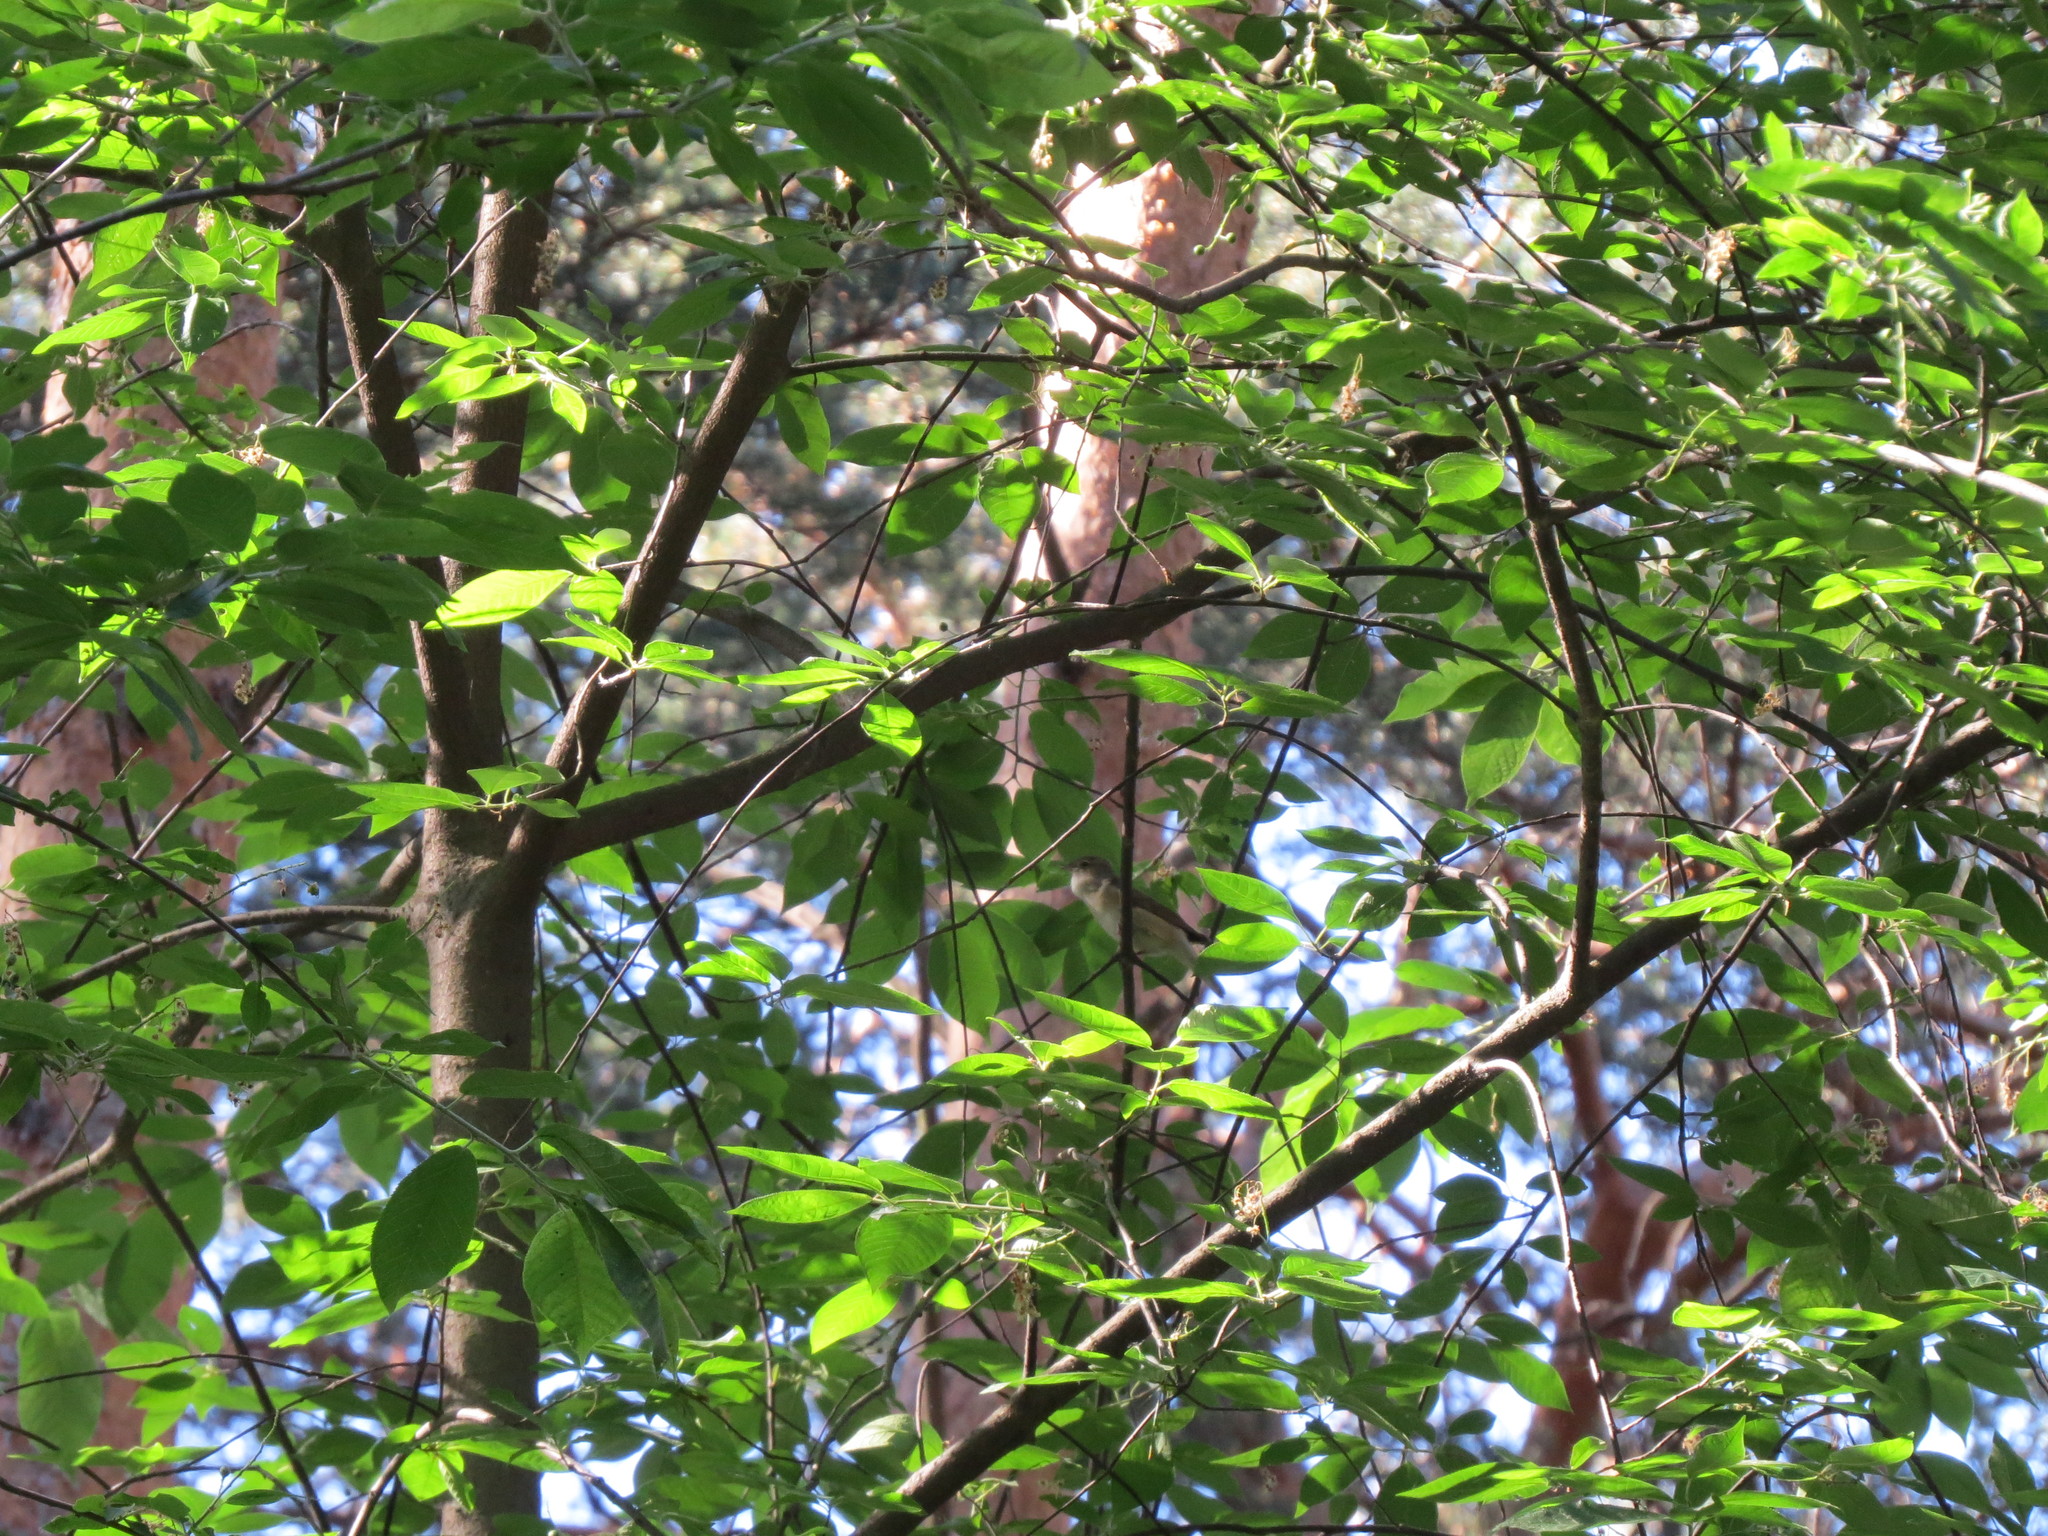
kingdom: Animalia
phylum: Chordata
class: Aves
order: Passeriformes
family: Sylviidae
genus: Sylvia
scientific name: Sylvia borin
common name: Garden warbler
